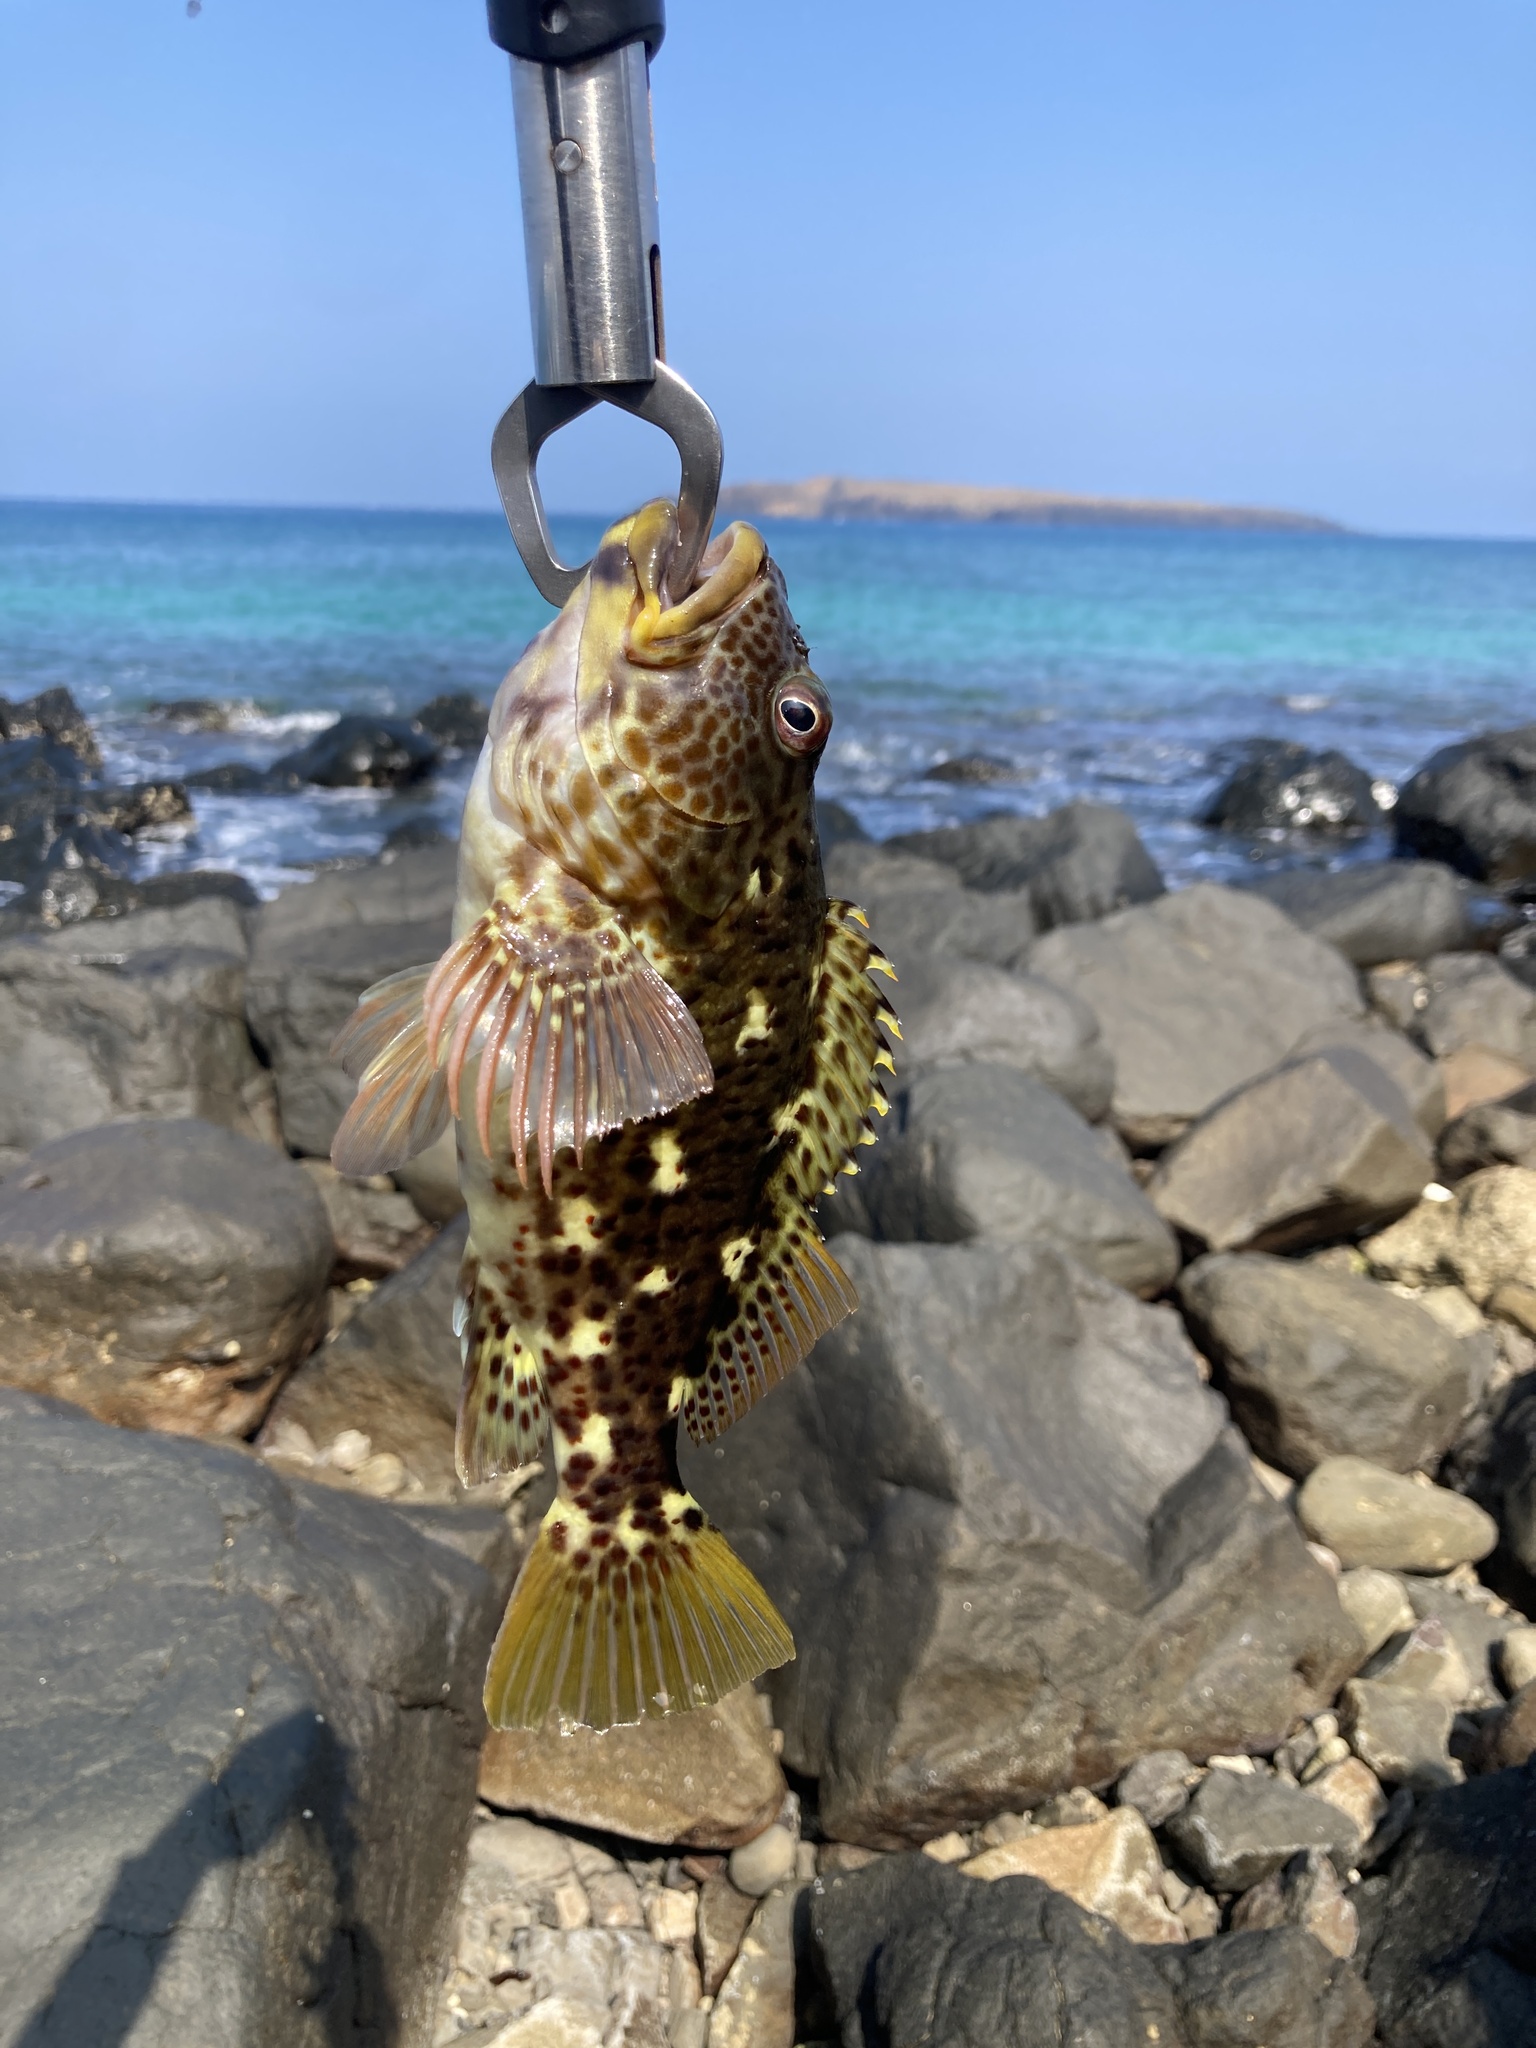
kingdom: Animalia
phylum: Chordata
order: Perciformes
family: Cirrhitidae
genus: Cirrhitus
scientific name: Cirrhitus pinnulatus
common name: Stocky hawkfish
